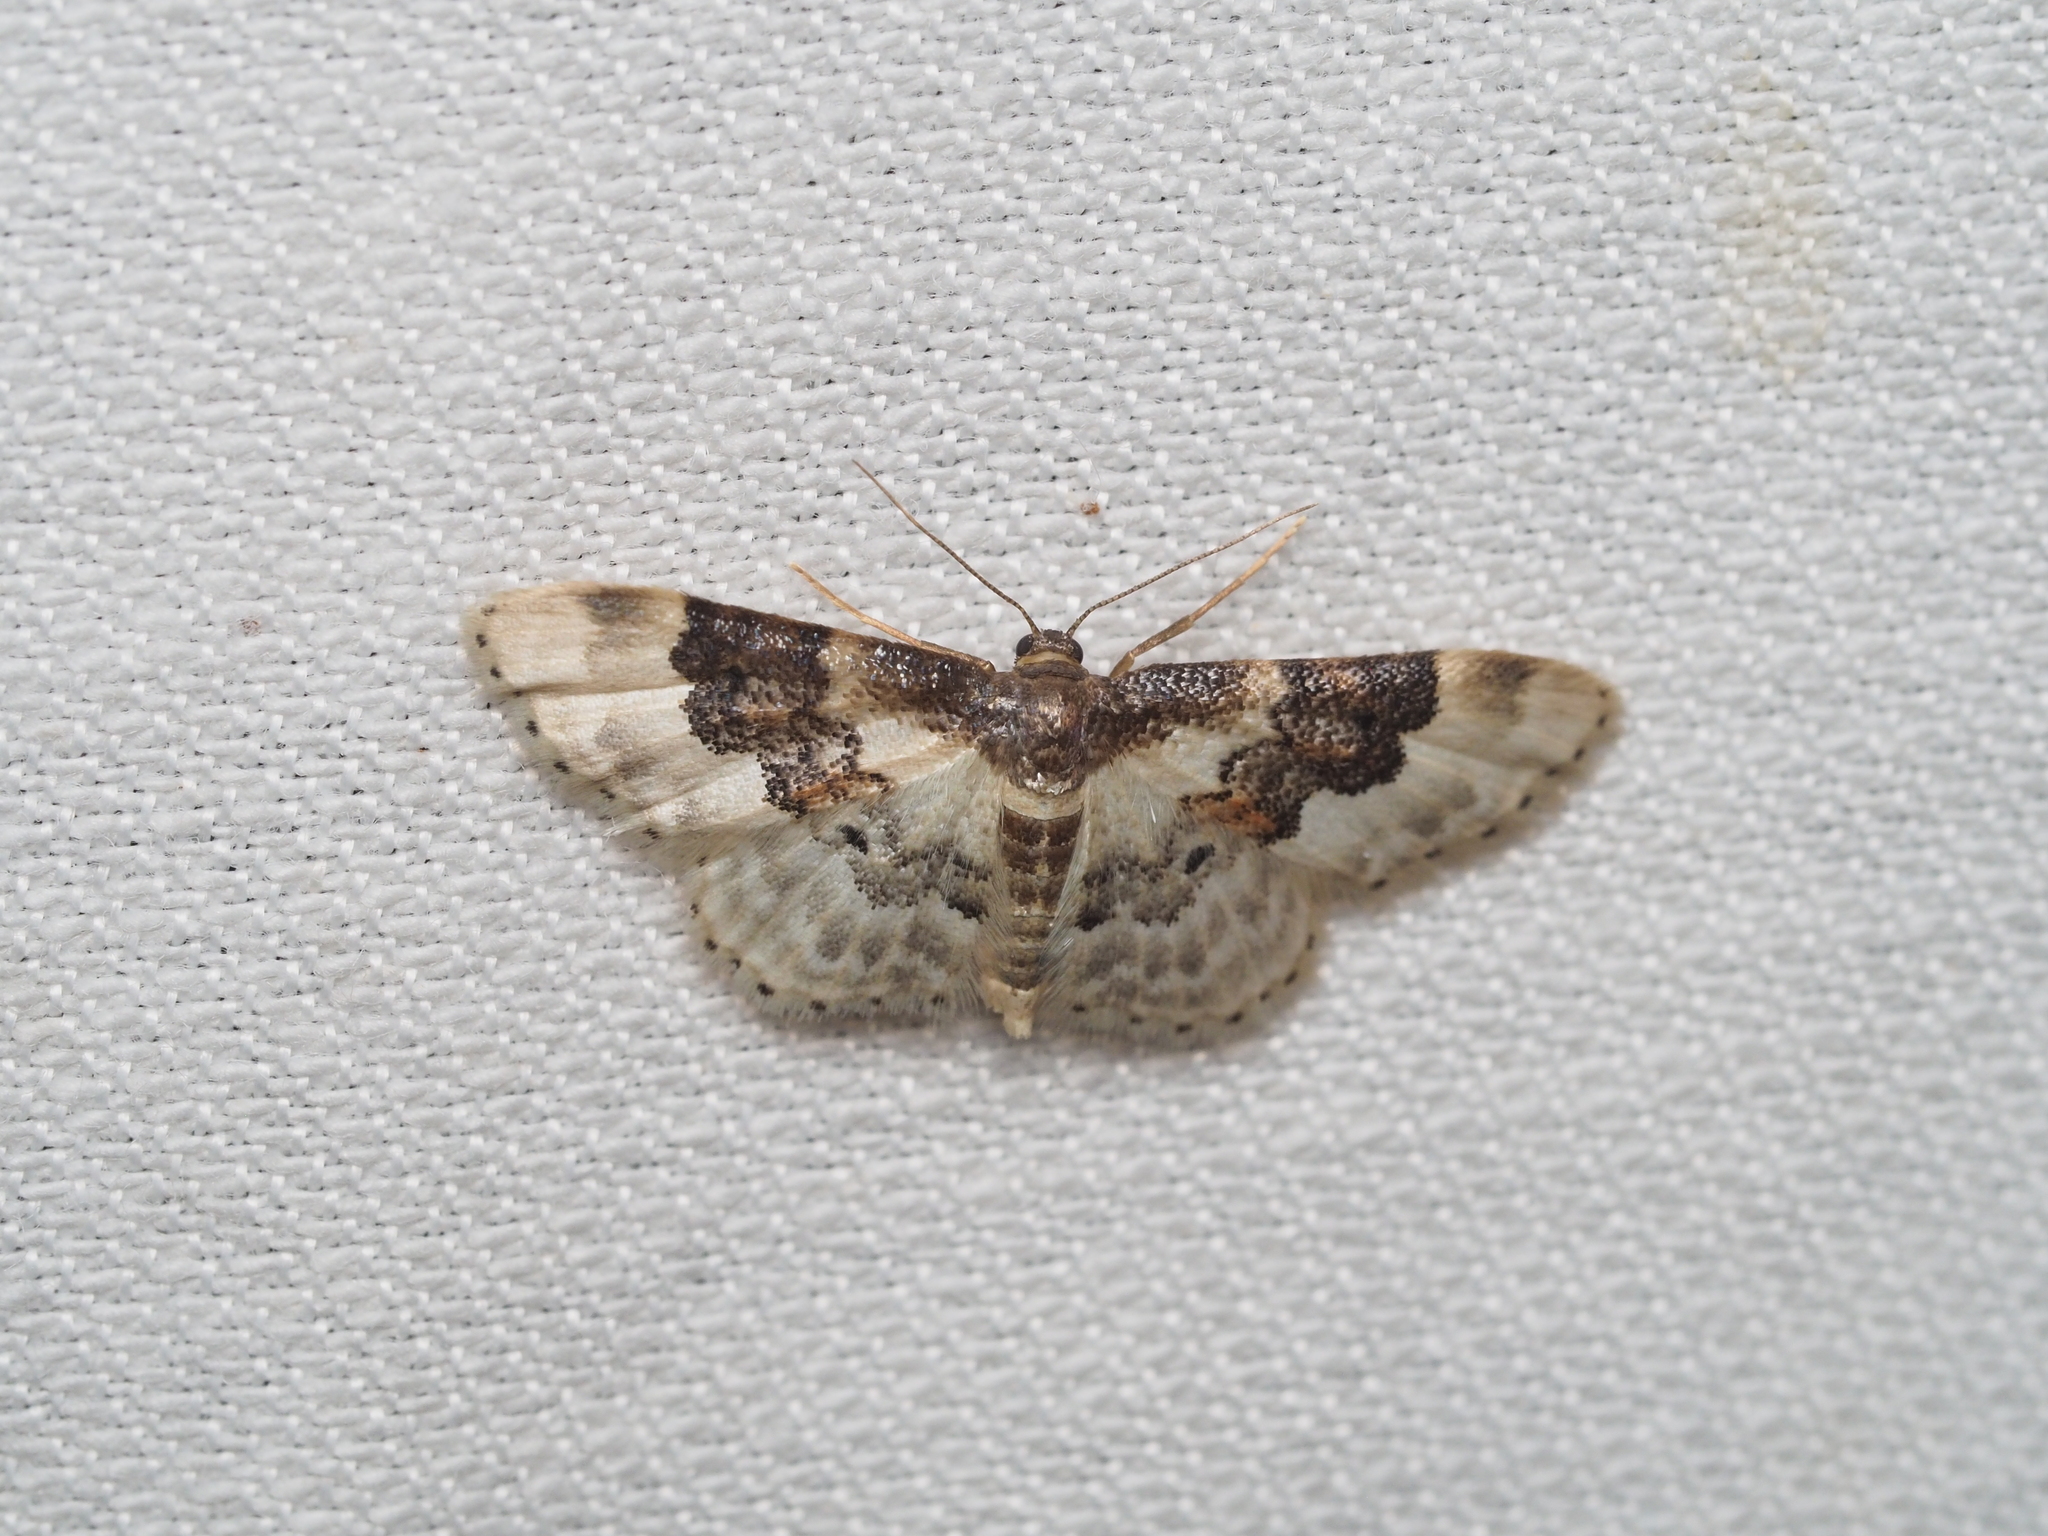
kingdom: Animalia
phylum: Arthropoda
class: Insecta
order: Lepidoptera
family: Geometridae
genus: Idaea
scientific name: Idaea rusticata
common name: Least carpet
